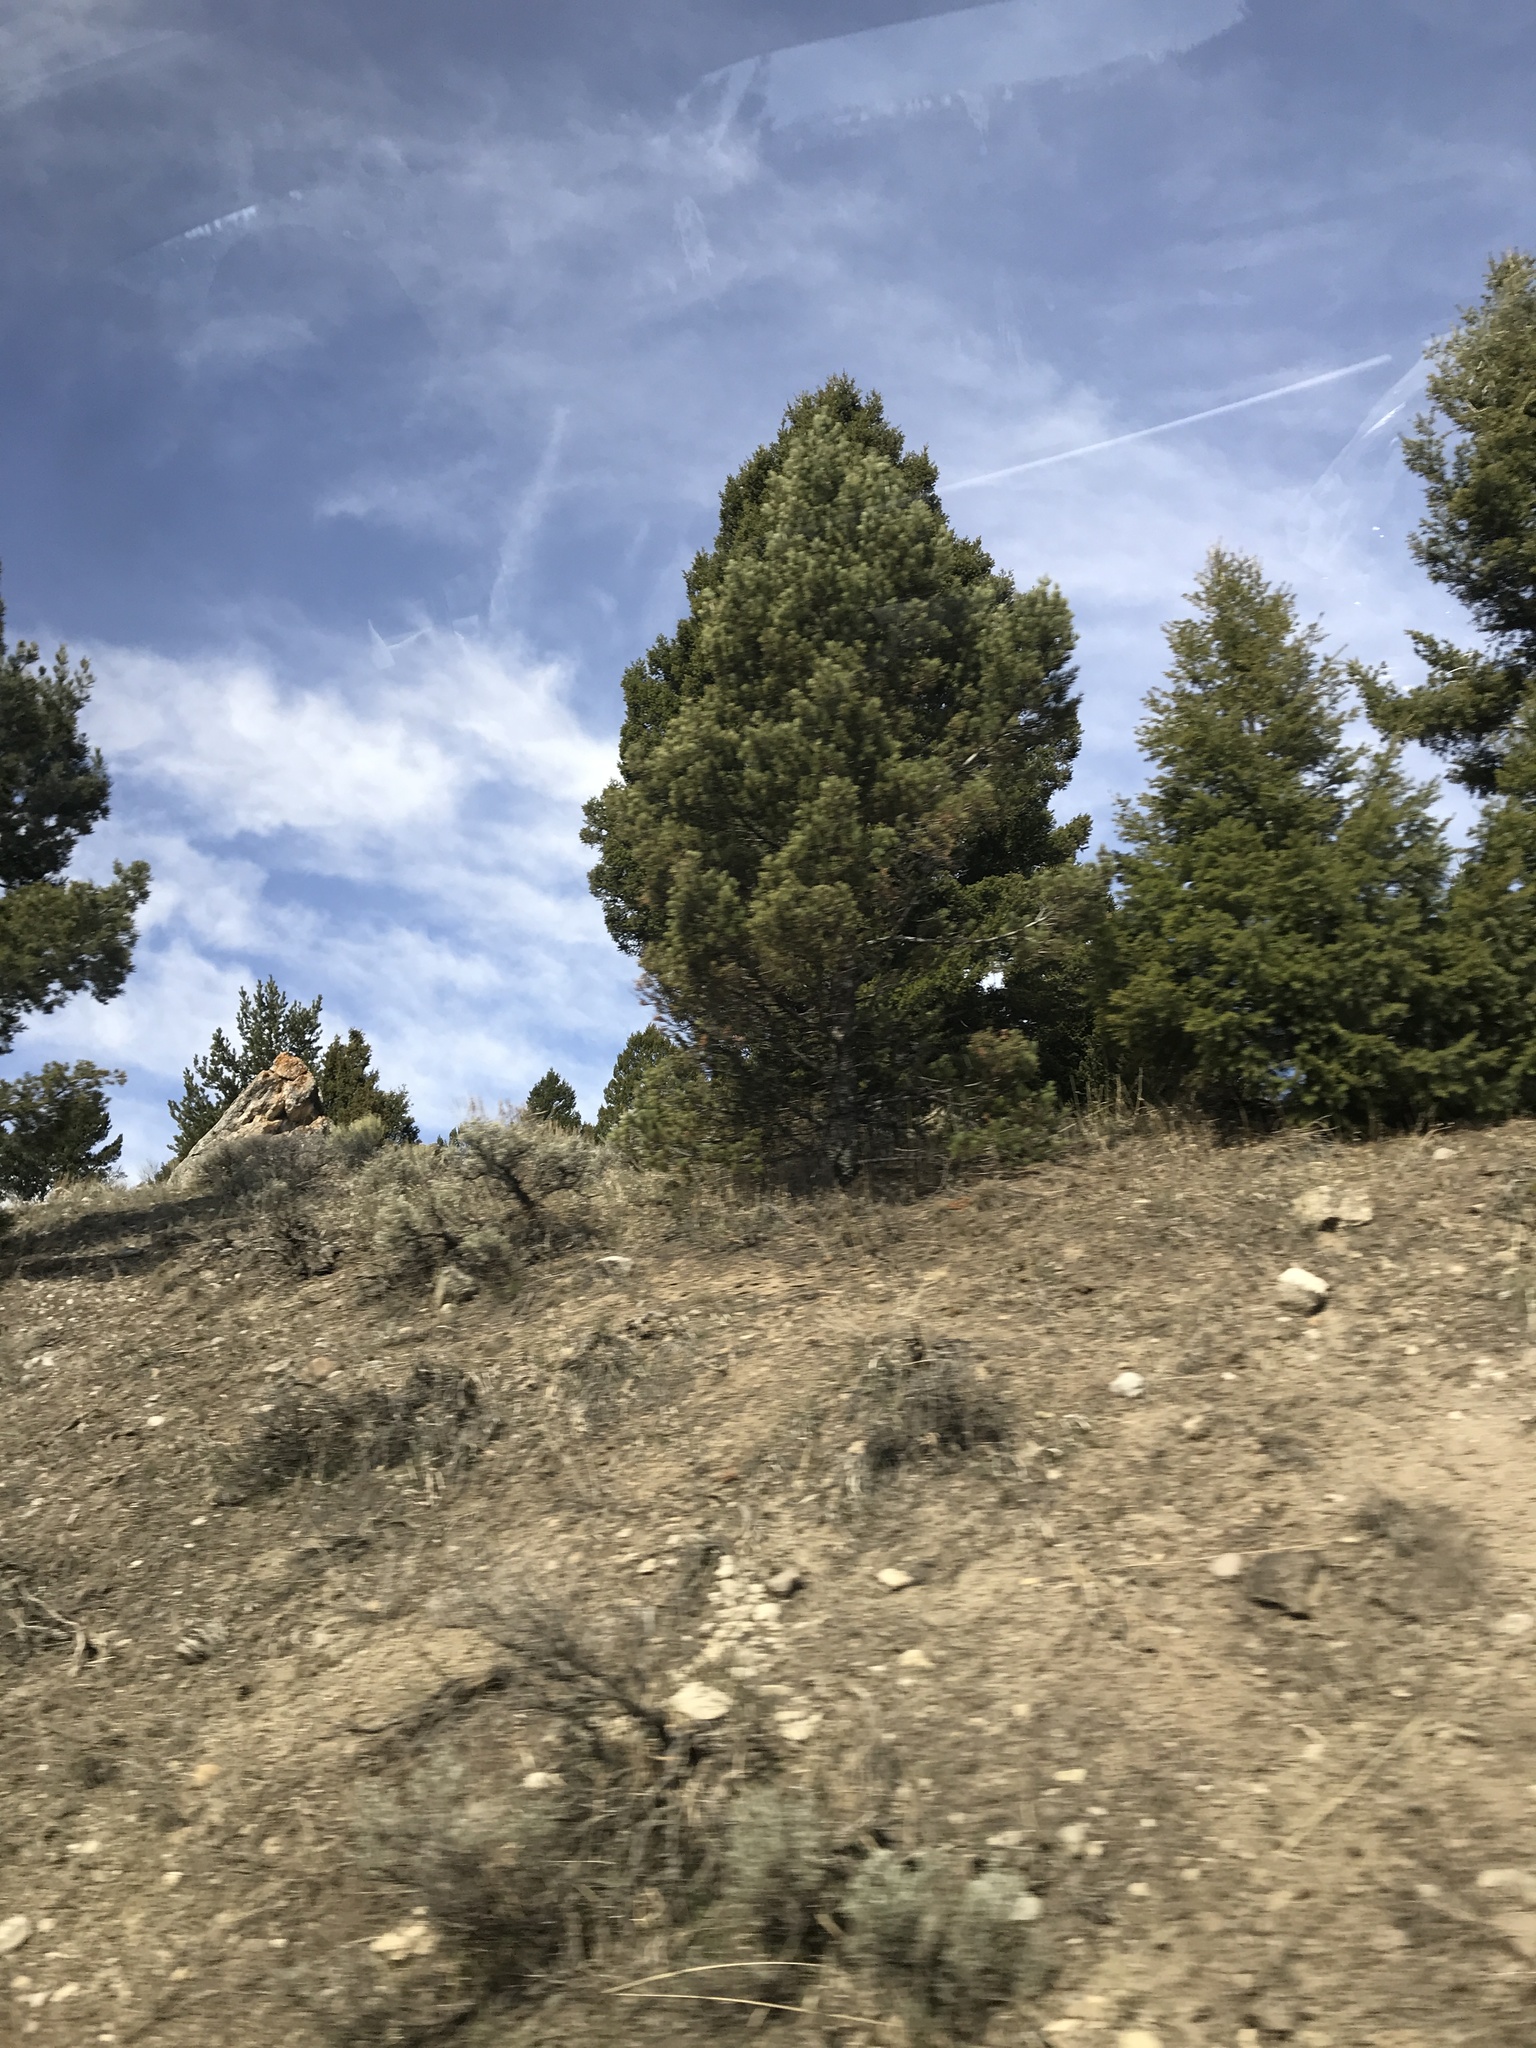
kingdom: Plantae
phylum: Tracheophyta
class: Pinopsida
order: Pinales
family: Cupressaceae
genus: Juniperus
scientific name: Juniperus scopulorum
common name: Rocky mountain juniper
